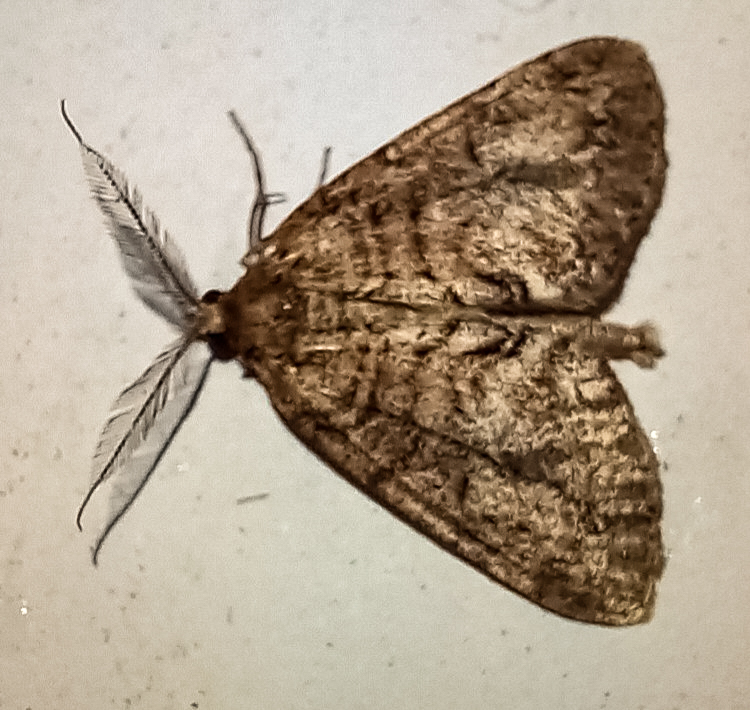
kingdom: Animalia
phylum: Arthropoda
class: Insecta
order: Lepidoptera
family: Geometridae
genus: Pseudocoremia
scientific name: Pseudocoremia suavis
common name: Common forest looper
